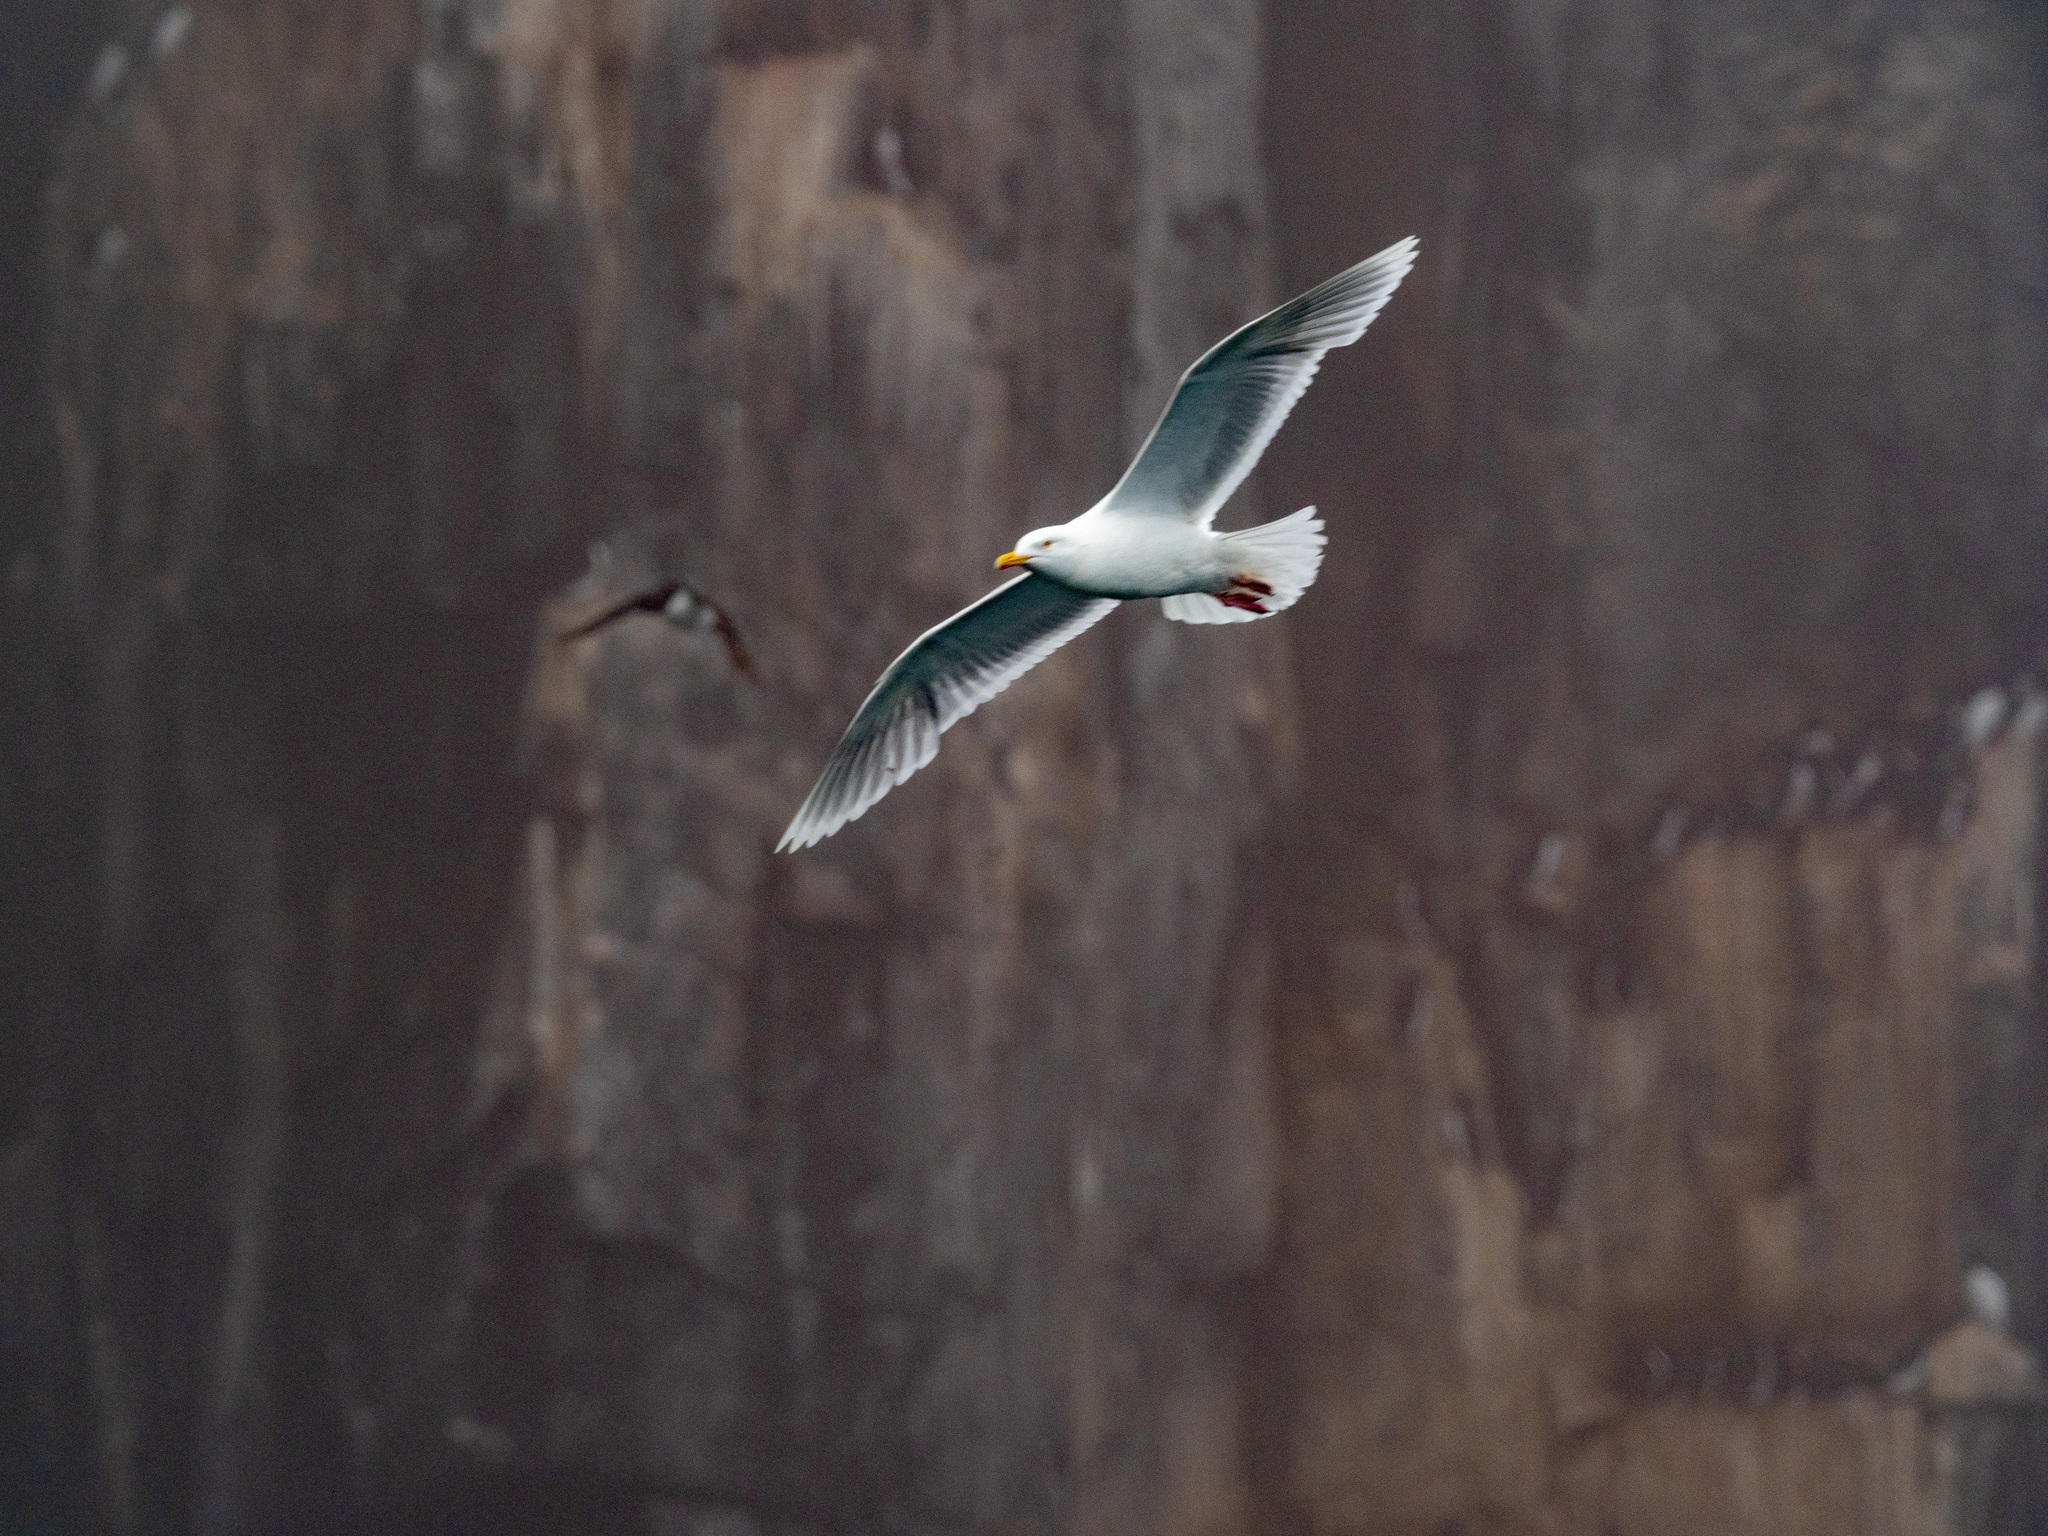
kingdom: Animalia
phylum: Chordata
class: Aves
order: Charadriiformes
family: Laridae
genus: Larus
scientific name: Larus hyperboreus
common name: Glaucous gull
